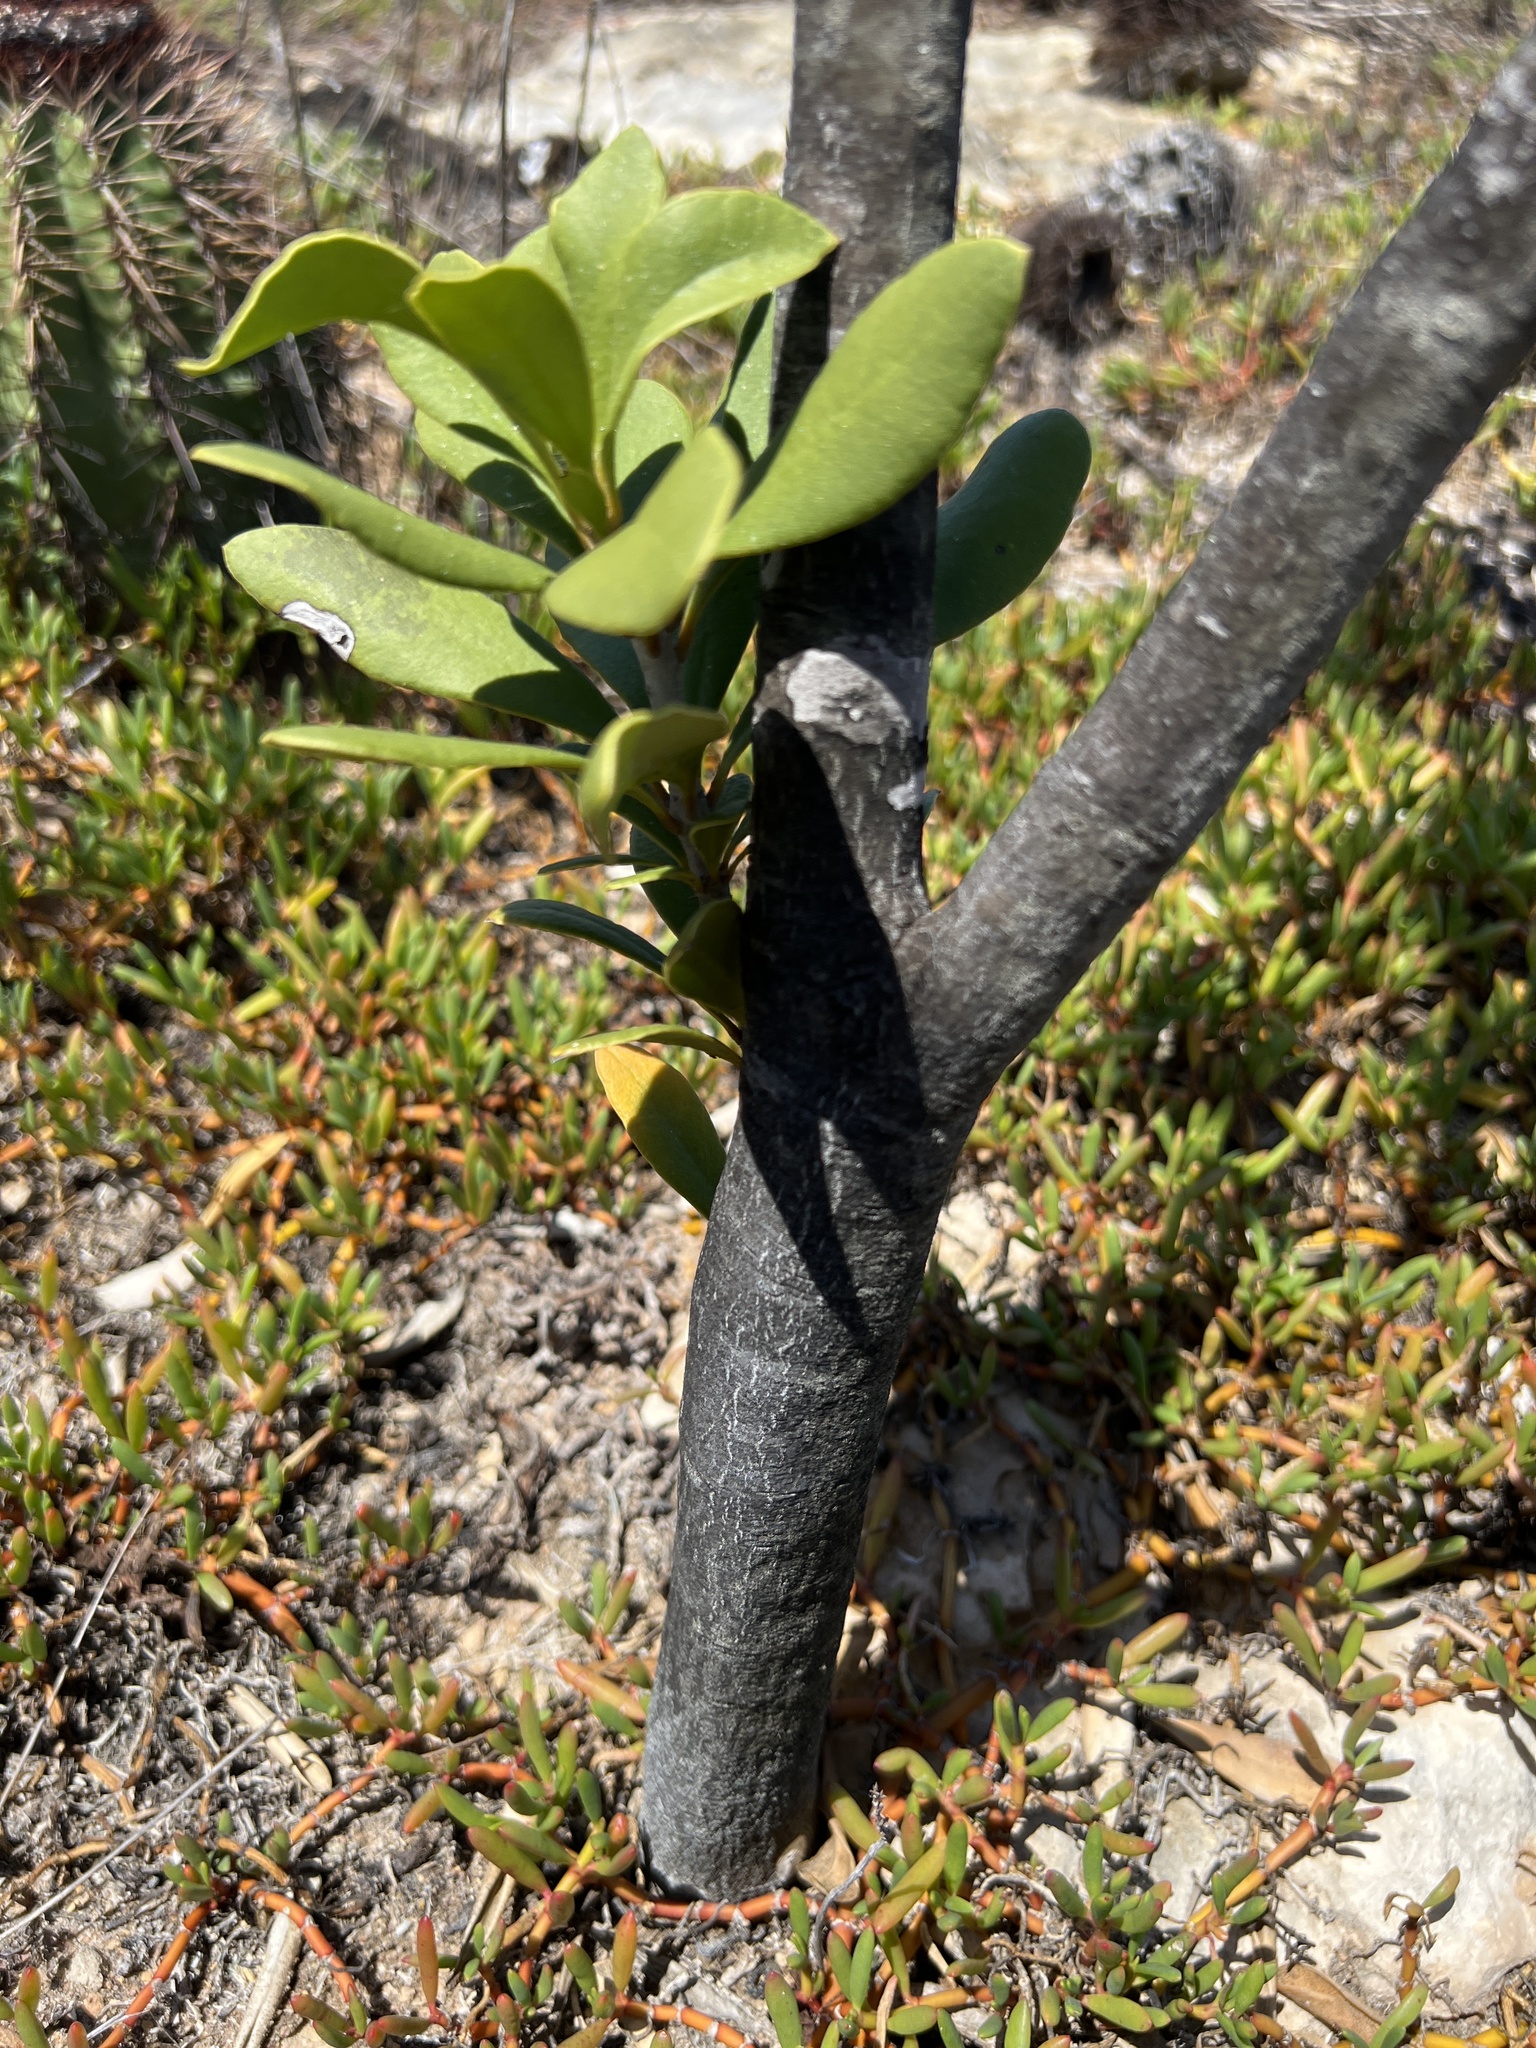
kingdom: Plantae
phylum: Tracheophyta
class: Magnoliopsida
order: Ericales
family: Primulaceae
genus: Jacquinia
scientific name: Jacquinia arborea
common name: Barceletwood
